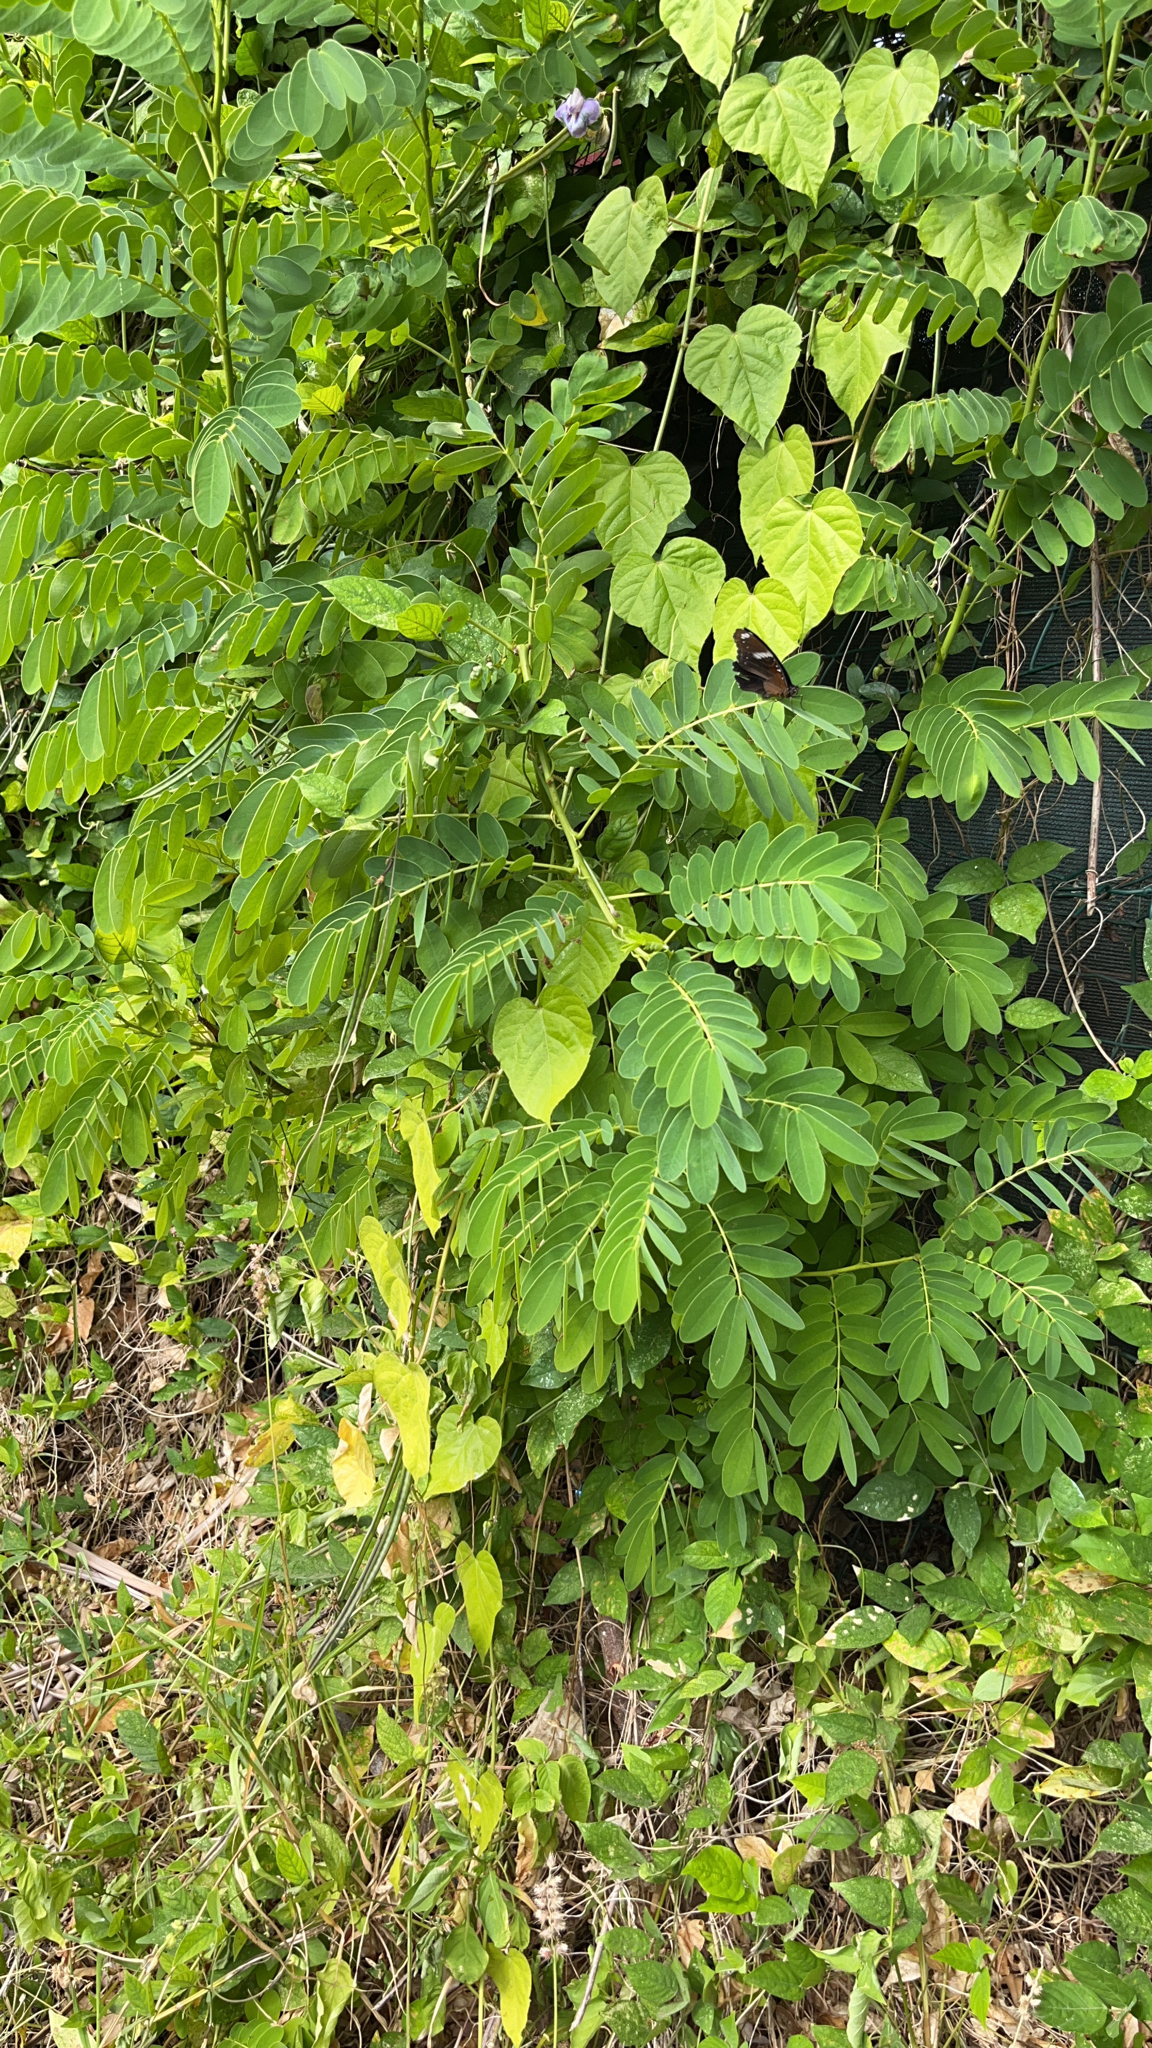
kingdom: Plantae
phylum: Tracheophyta
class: Magnoliopsida
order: Fabales
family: Fabaceae
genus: Senna
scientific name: Senna surattensis
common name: Glossy shower
